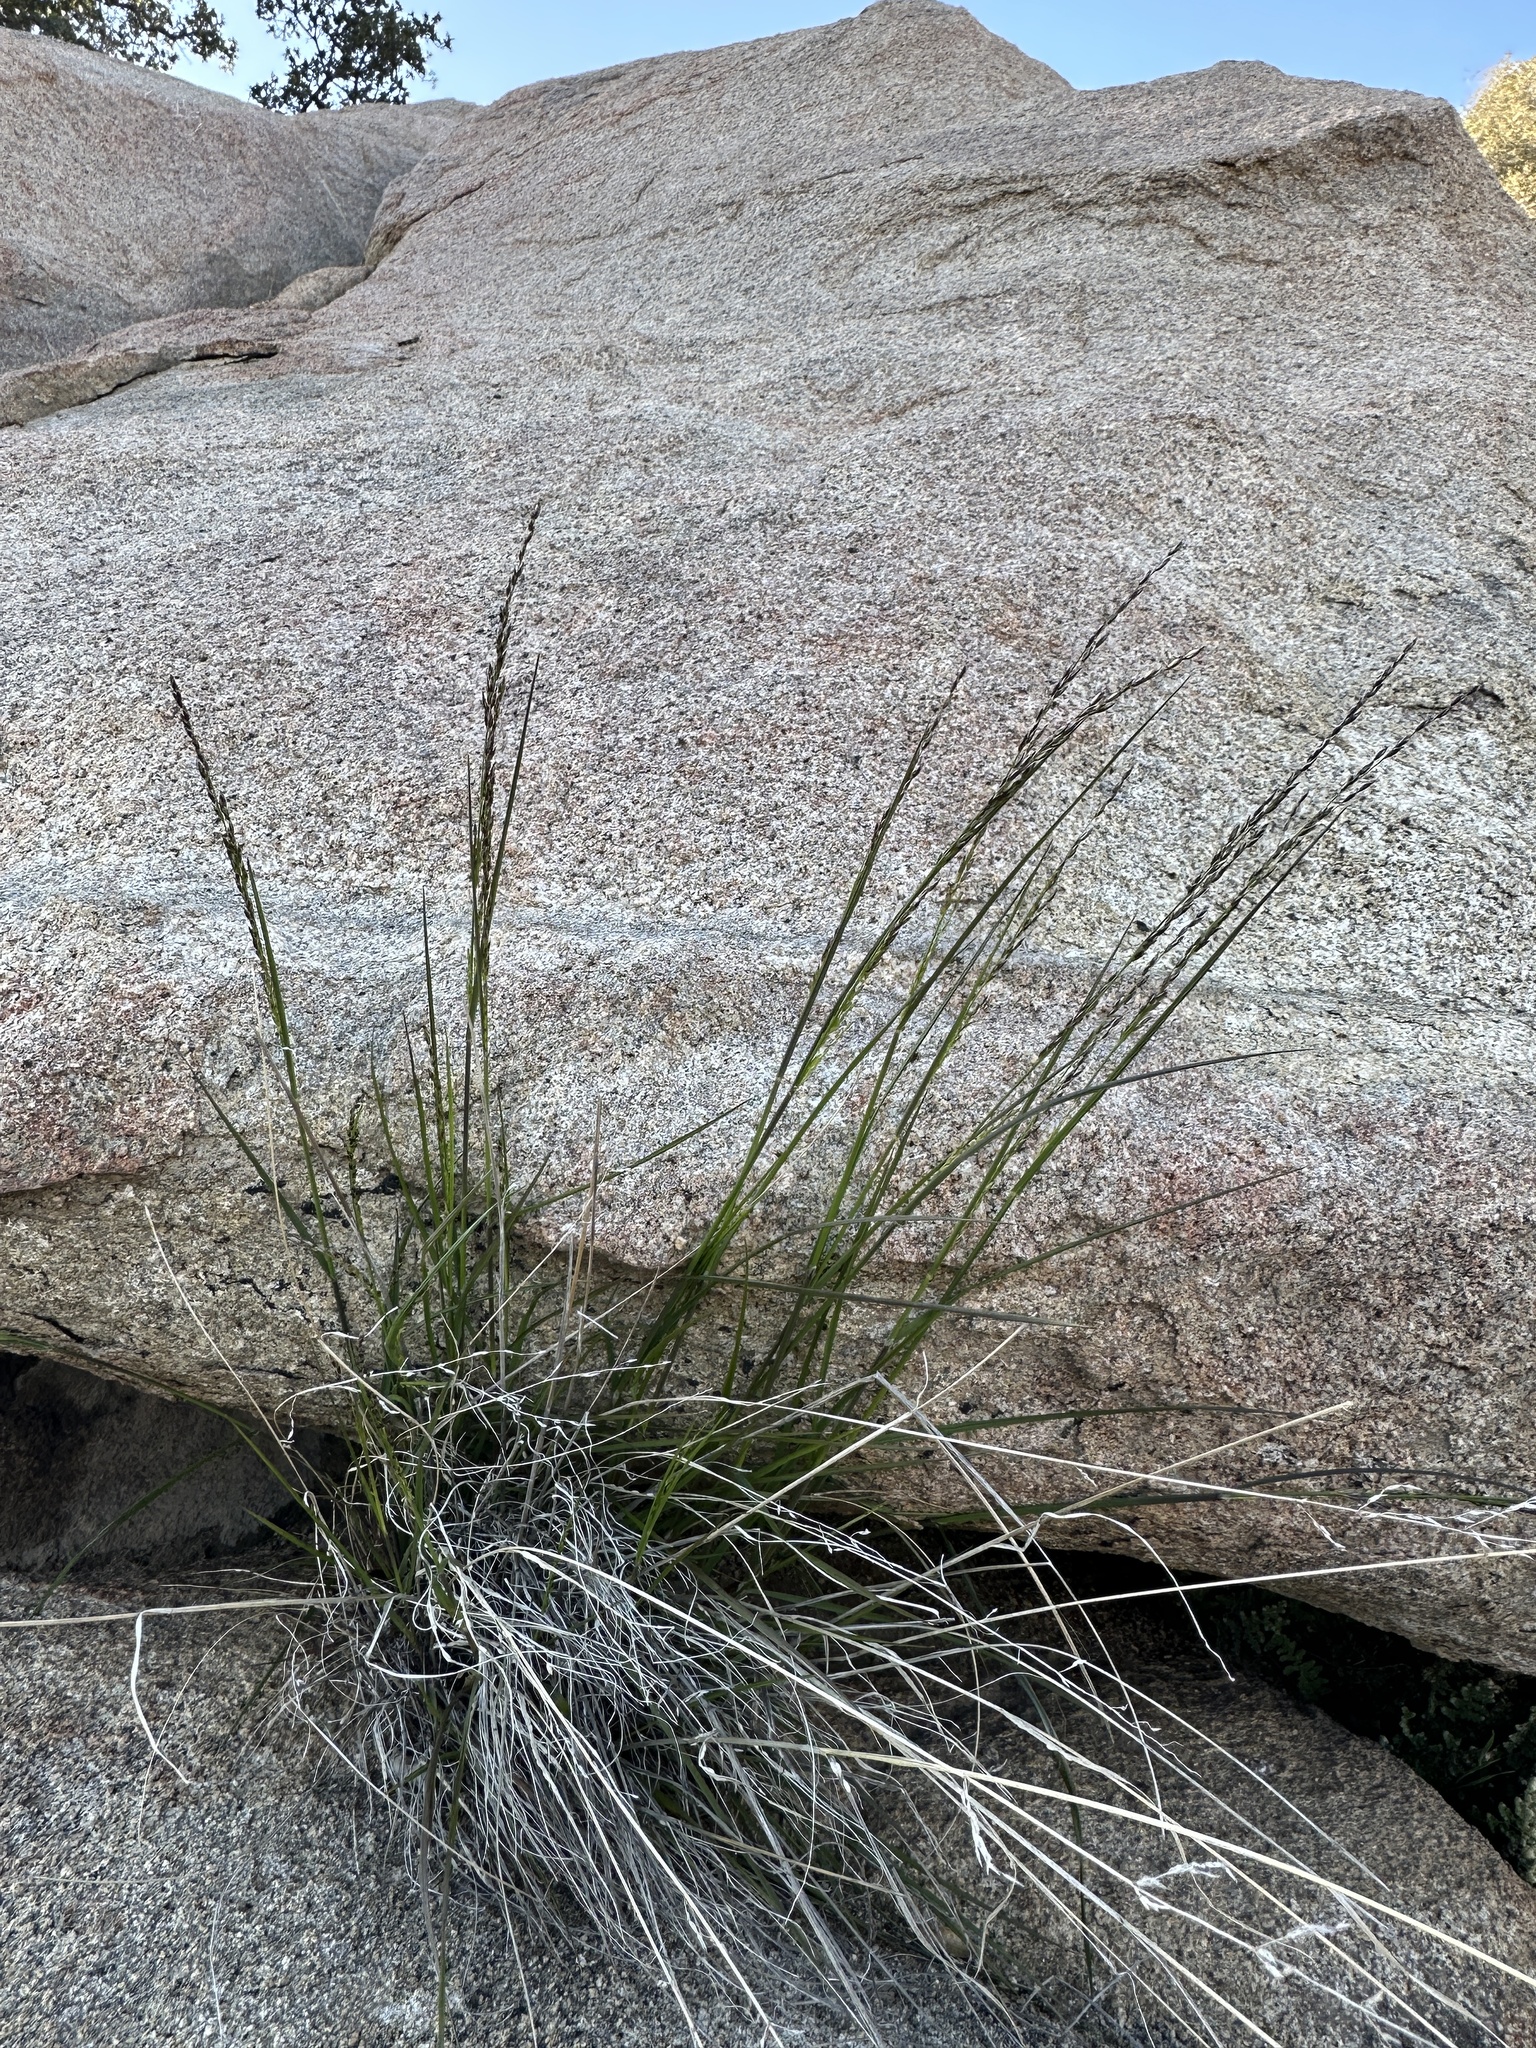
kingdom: Plantae
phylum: Tracheophyta
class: Liliopsida
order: Poales
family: Poaceae
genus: Melica
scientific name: Melica imperfecta
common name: California melic
